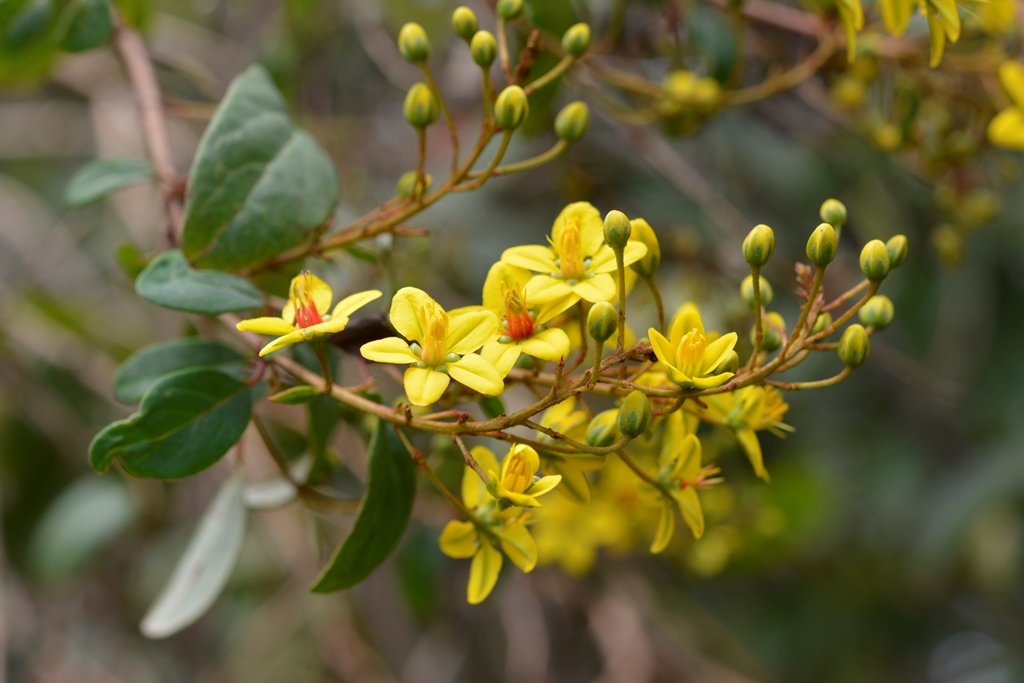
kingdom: Plantae
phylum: Tracheophyta
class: Magnoliopsida
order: Malpighiales
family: Malpighiaceae
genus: Galphimia
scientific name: Galphimia speciosa
